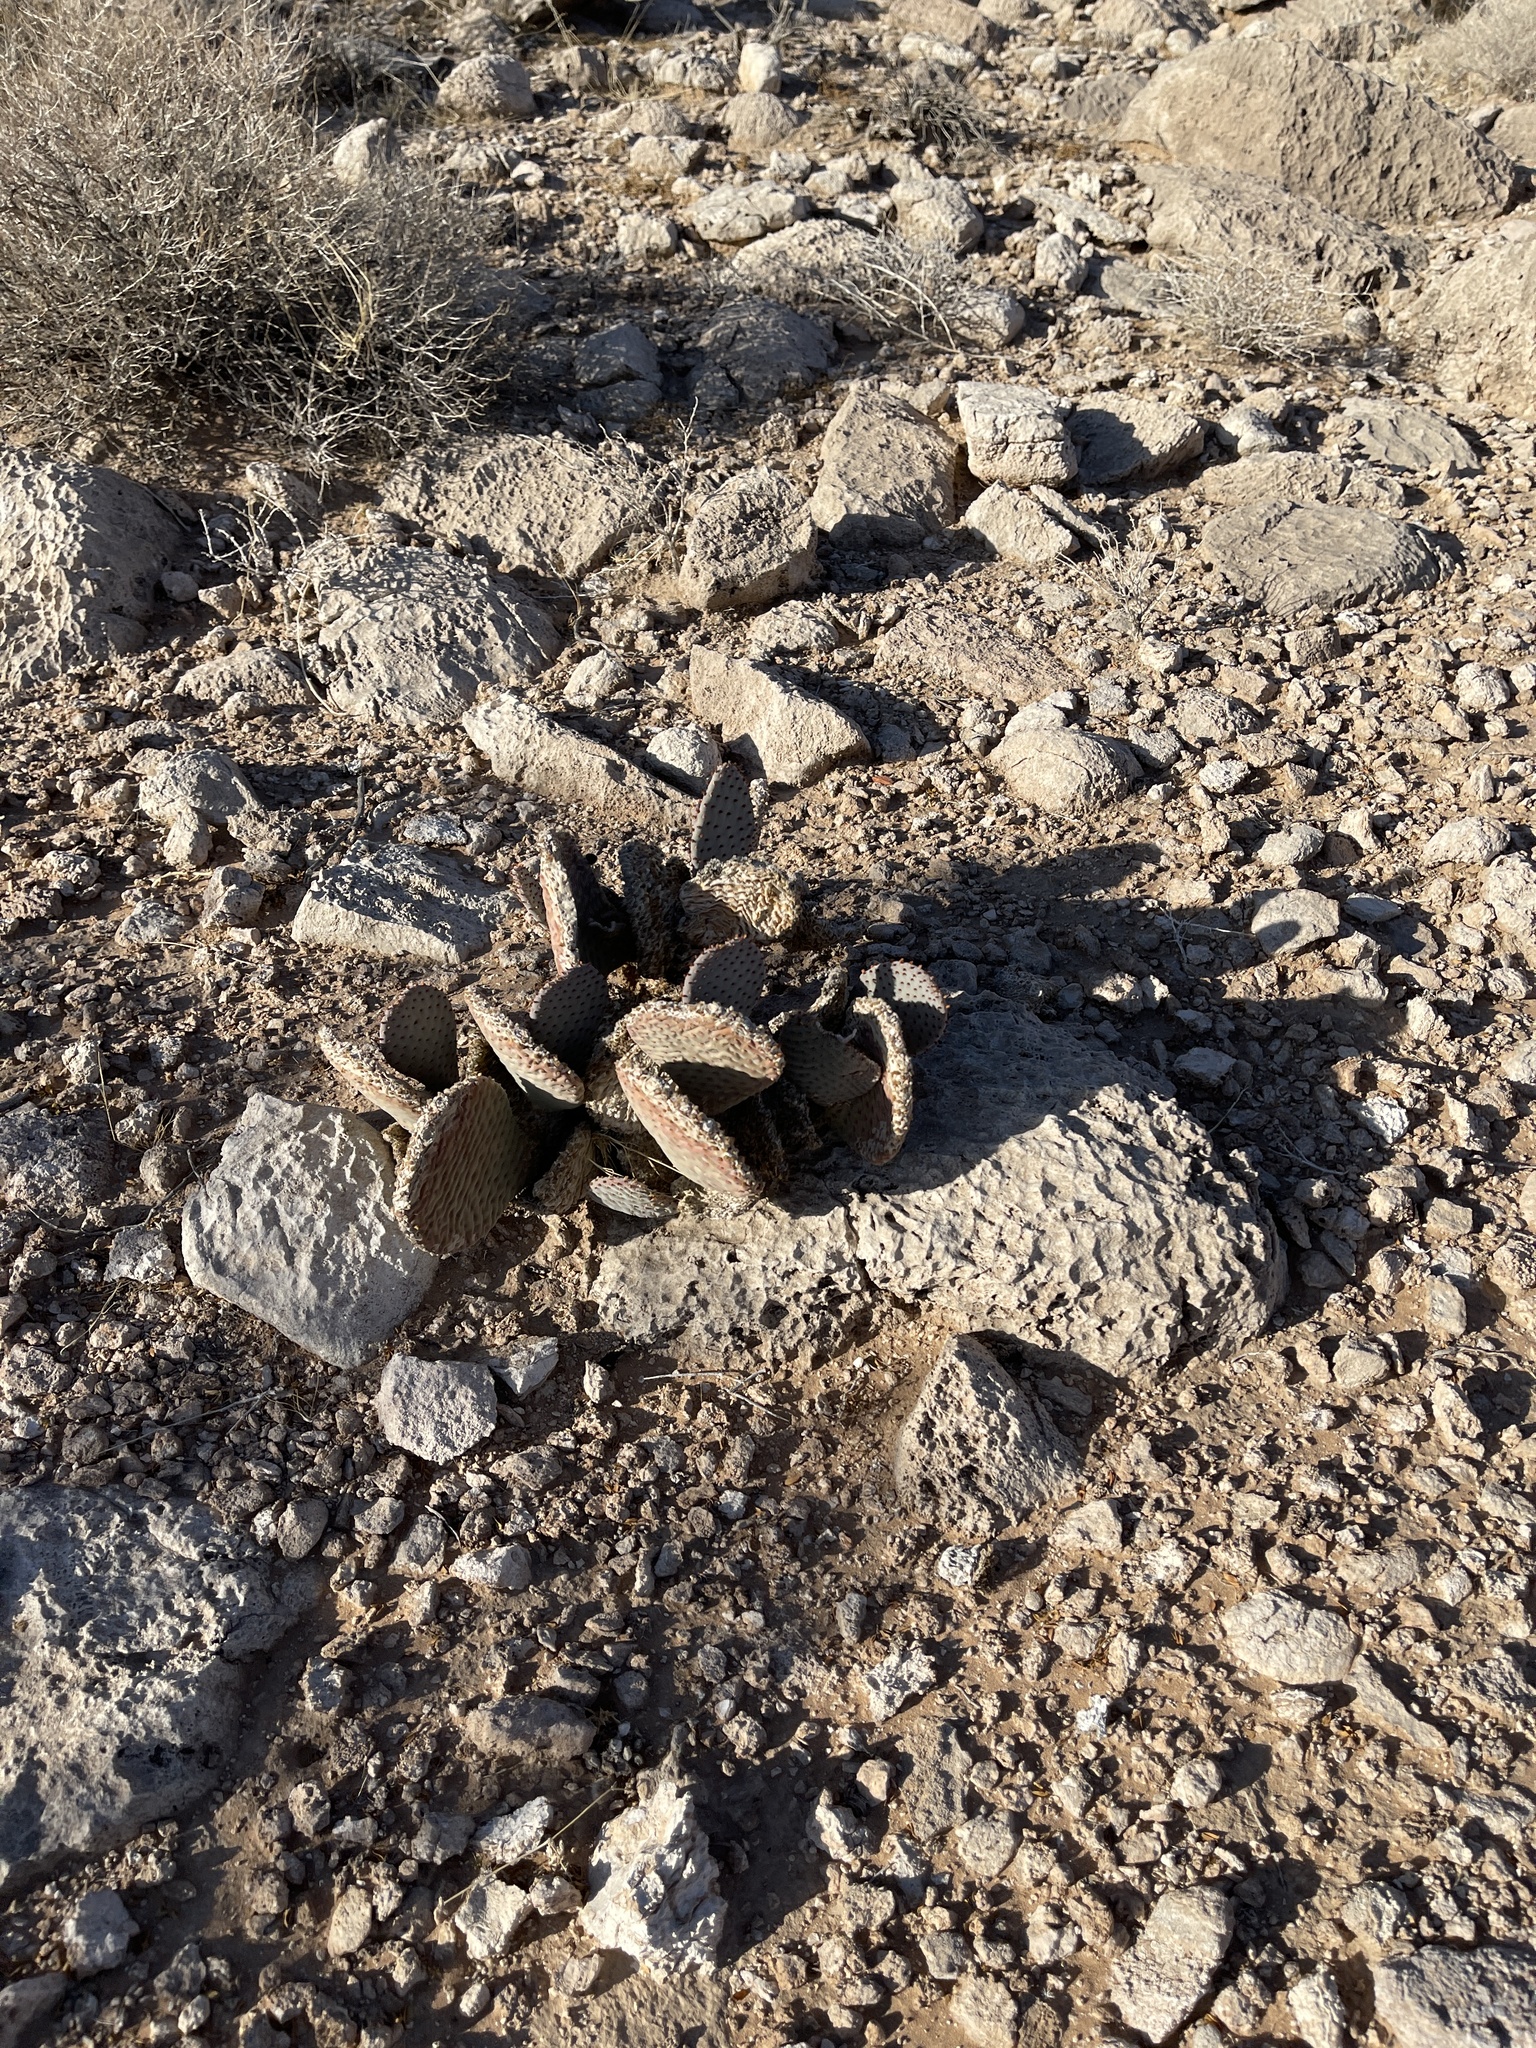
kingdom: Plantae
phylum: Tracheophyta
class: Magnoliopsida
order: Caryophyllales
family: Cactaceae
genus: Opuntia
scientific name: Opuntia basilaris
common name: Beavertail prickly-pear
